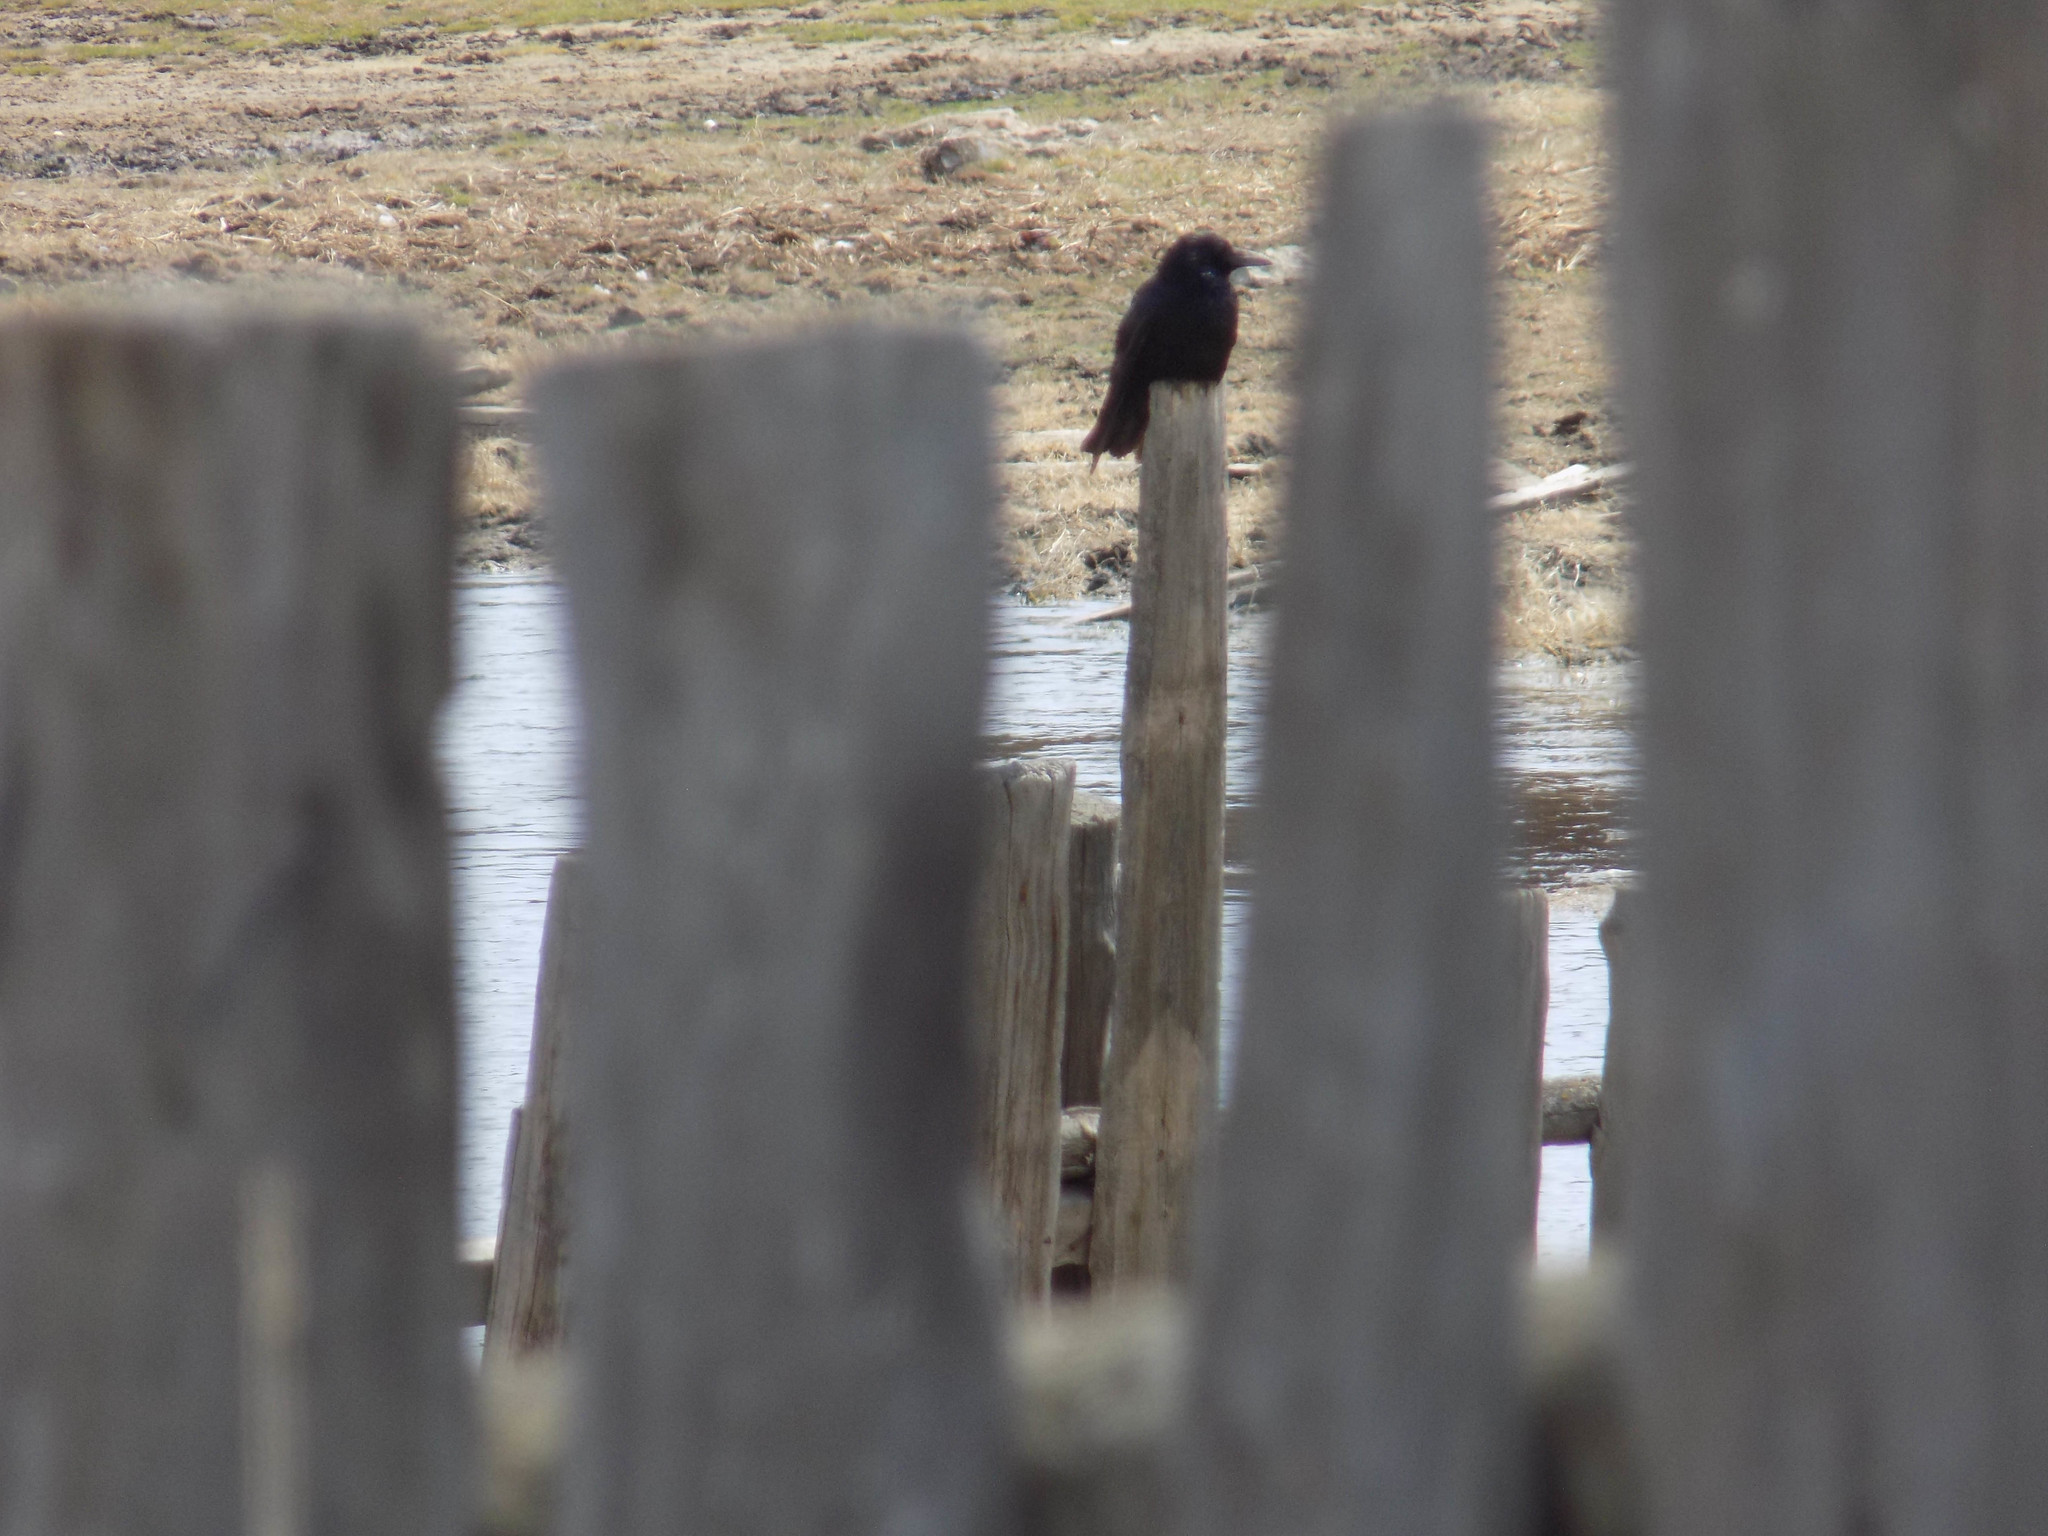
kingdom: Animalia
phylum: Chordata
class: Aves
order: Passeriformes
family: Corvidae
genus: Corvus
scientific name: Corvus corone
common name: Carrion crow
